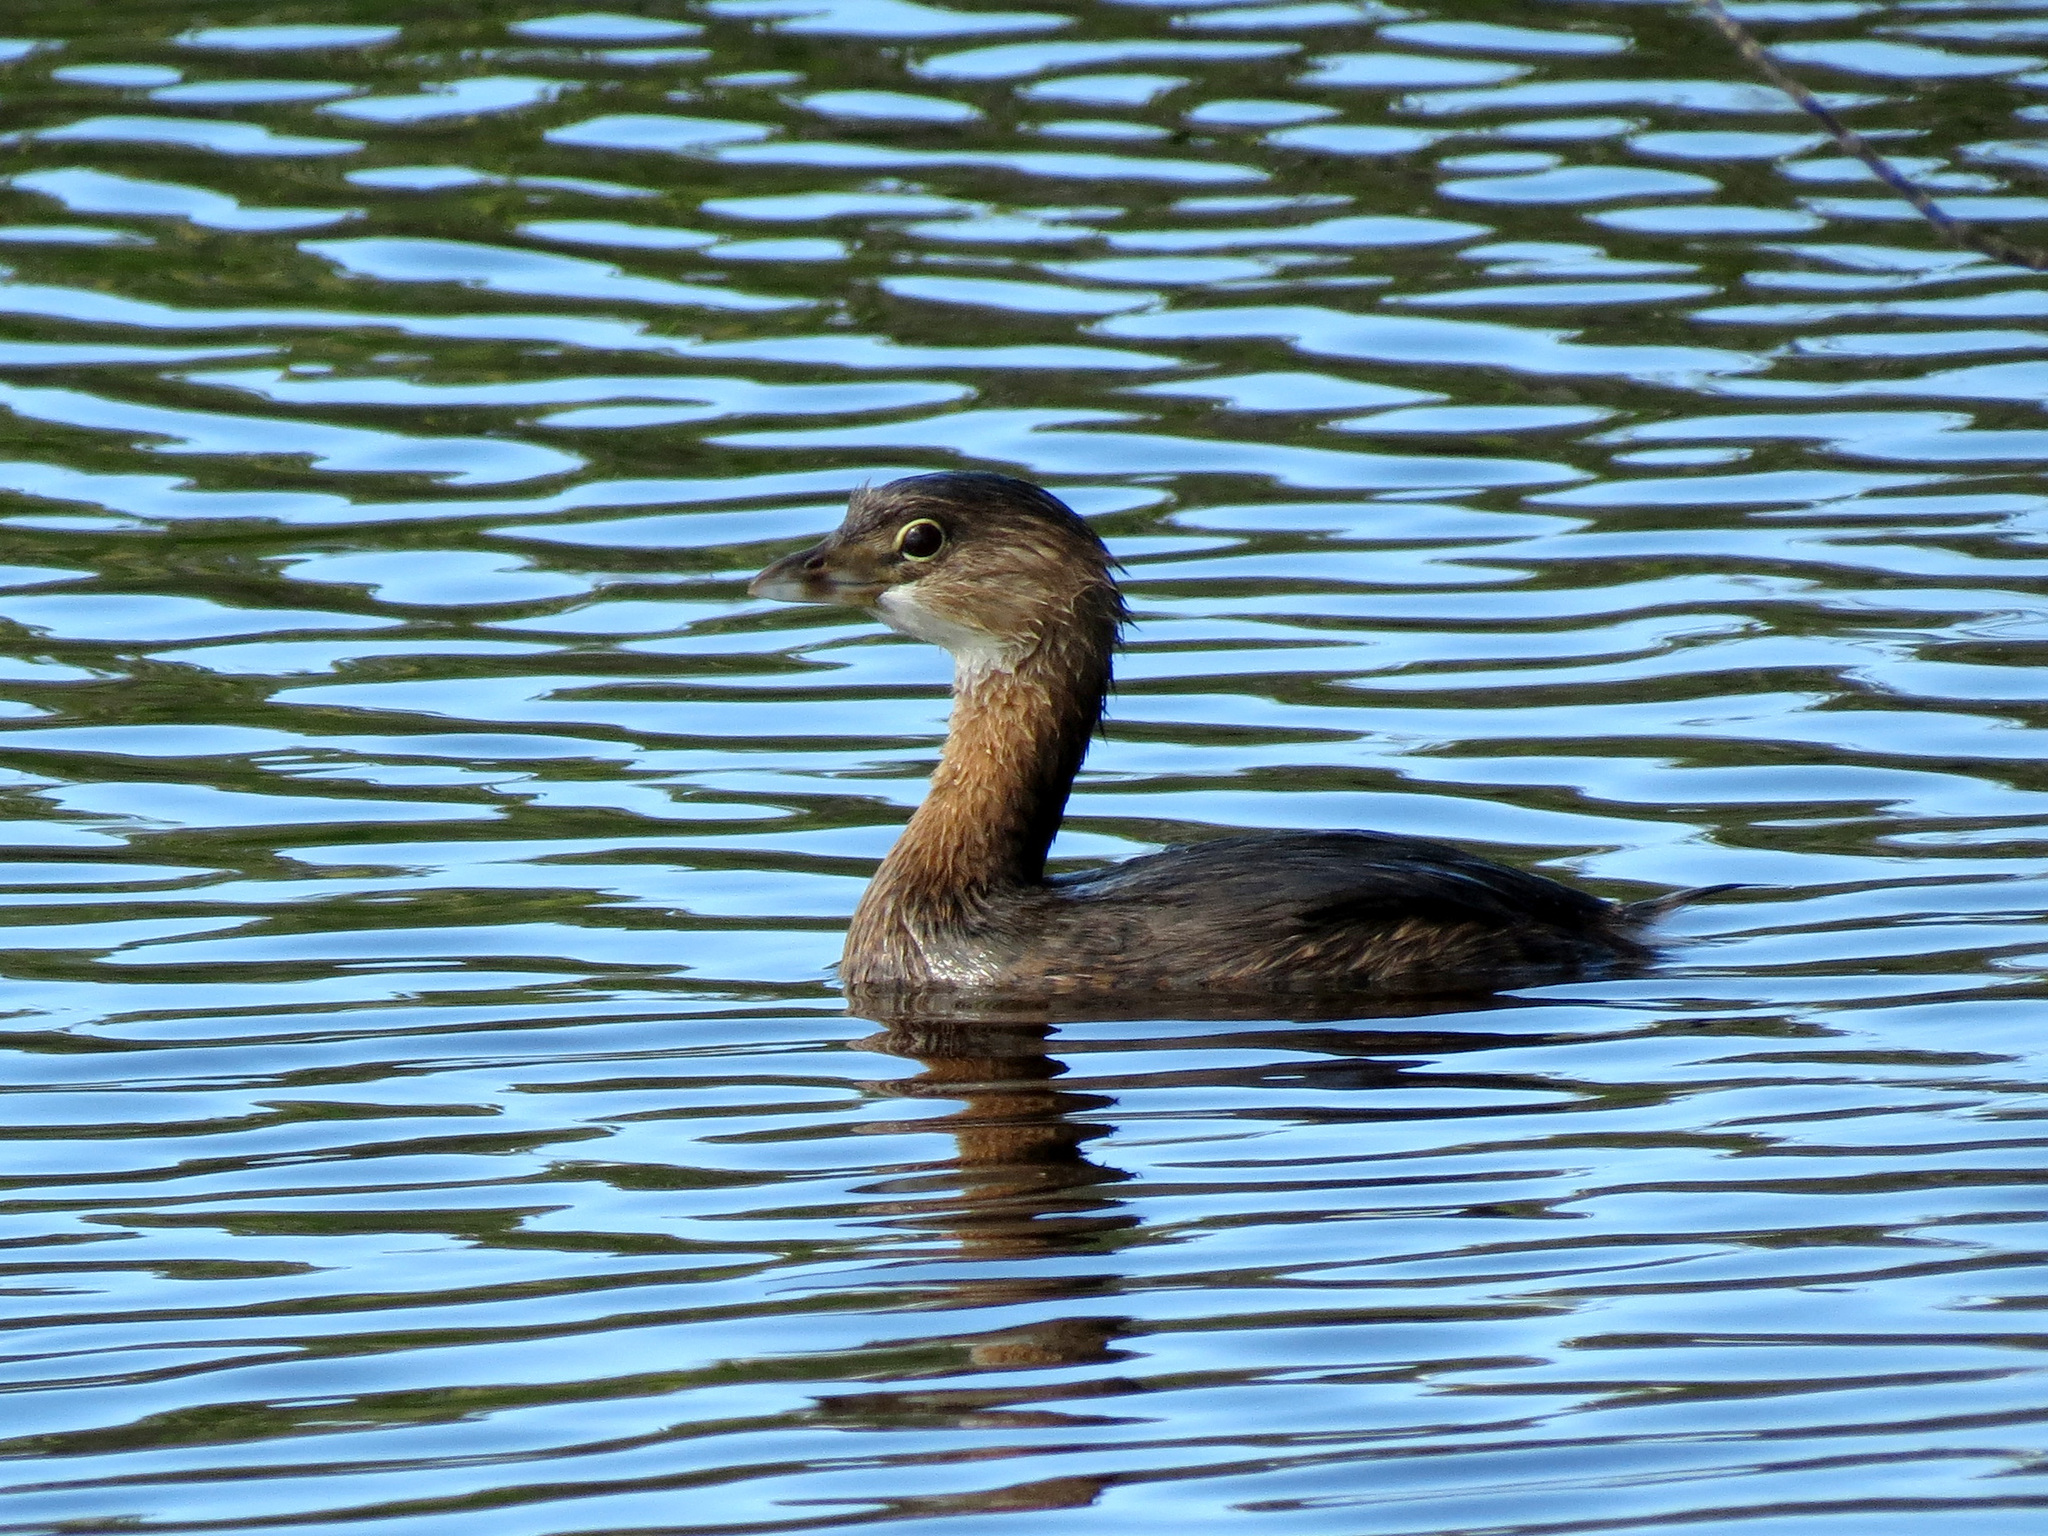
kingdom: Animalia
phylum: Chordata
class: Aves
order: Podicipediformes
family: Podicipedidae
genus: Podilymbus
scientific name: Podilymbus podiceps
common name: Pied-billed grebe
